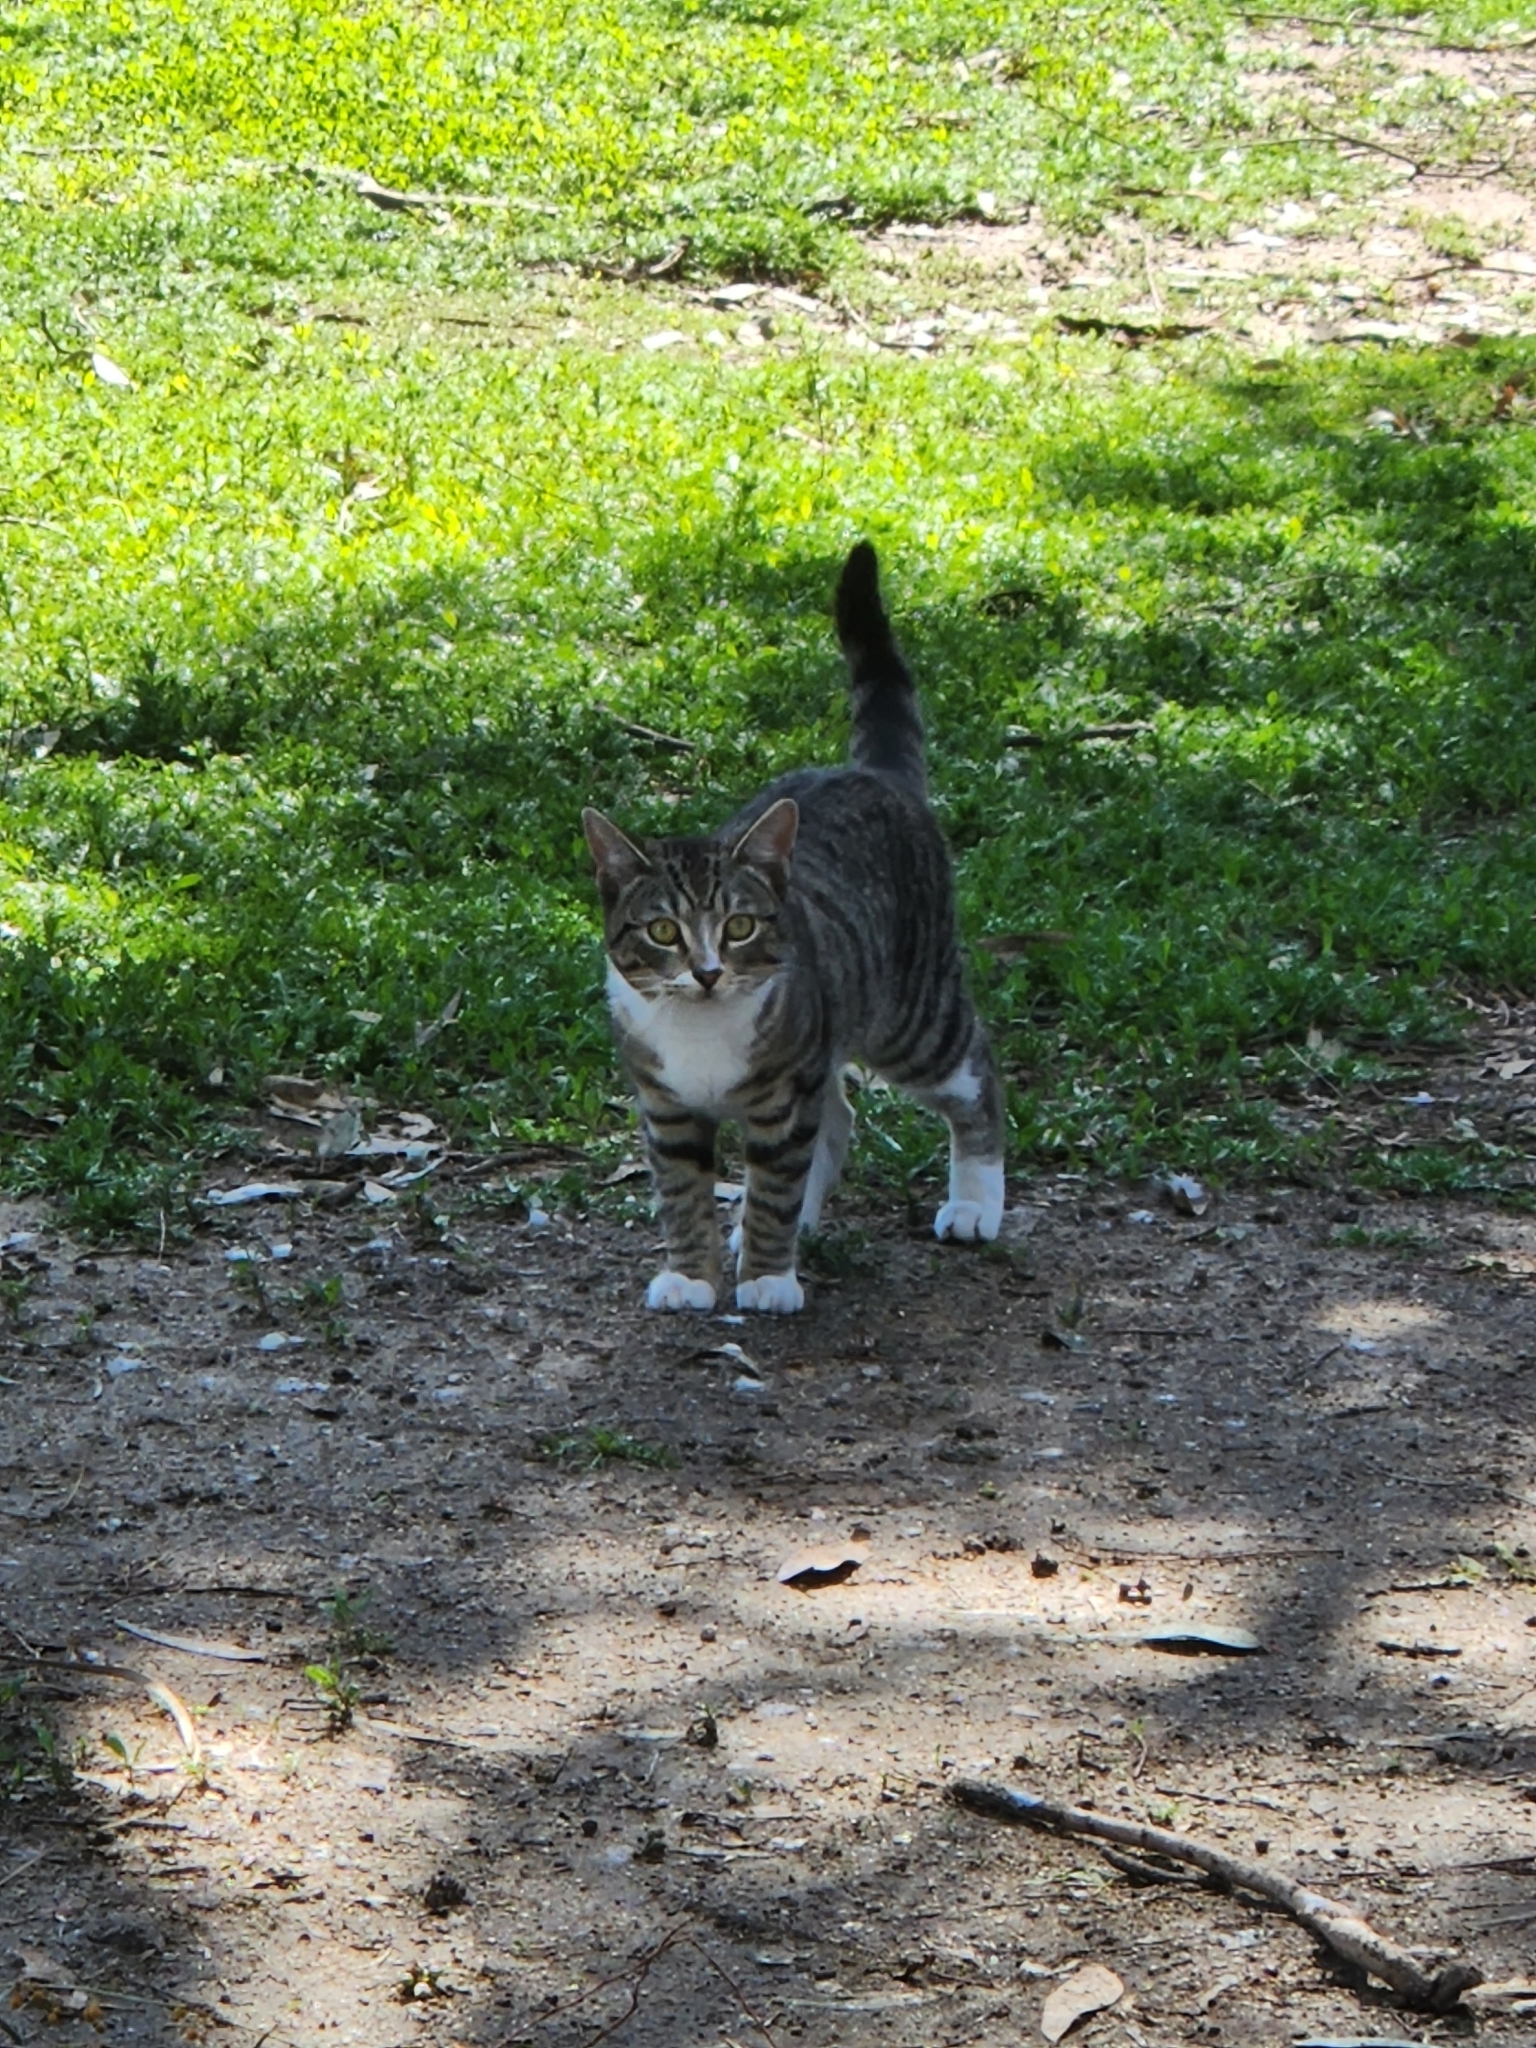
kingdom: Animalia
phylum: Chordata
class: Mammalia
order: Carnivora
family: Felidae
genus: Felis
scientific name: Felis catus
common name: Domestic cat
